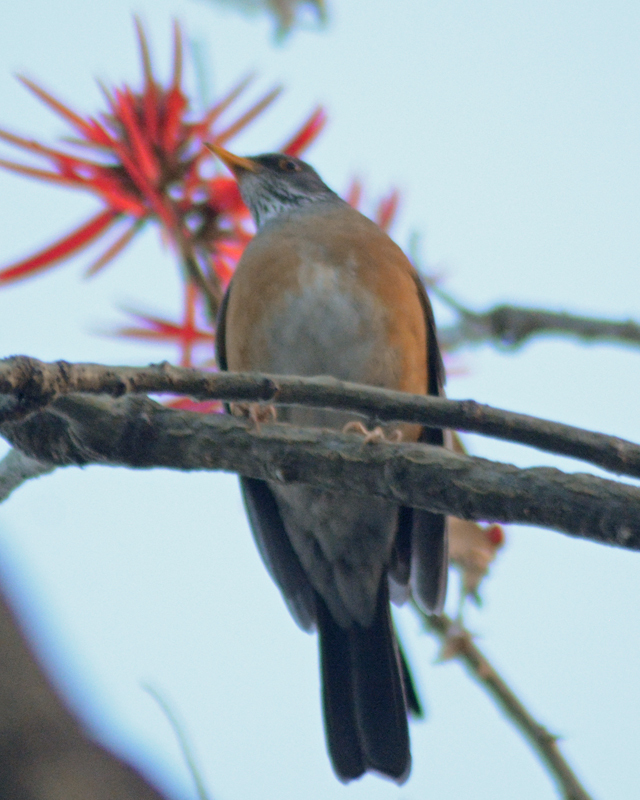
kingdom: Animalia
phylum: Chordata
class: Aves
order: Passeriformes
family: Turdidae
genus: Turdus
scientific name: Turdus migratorius
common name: American robin
